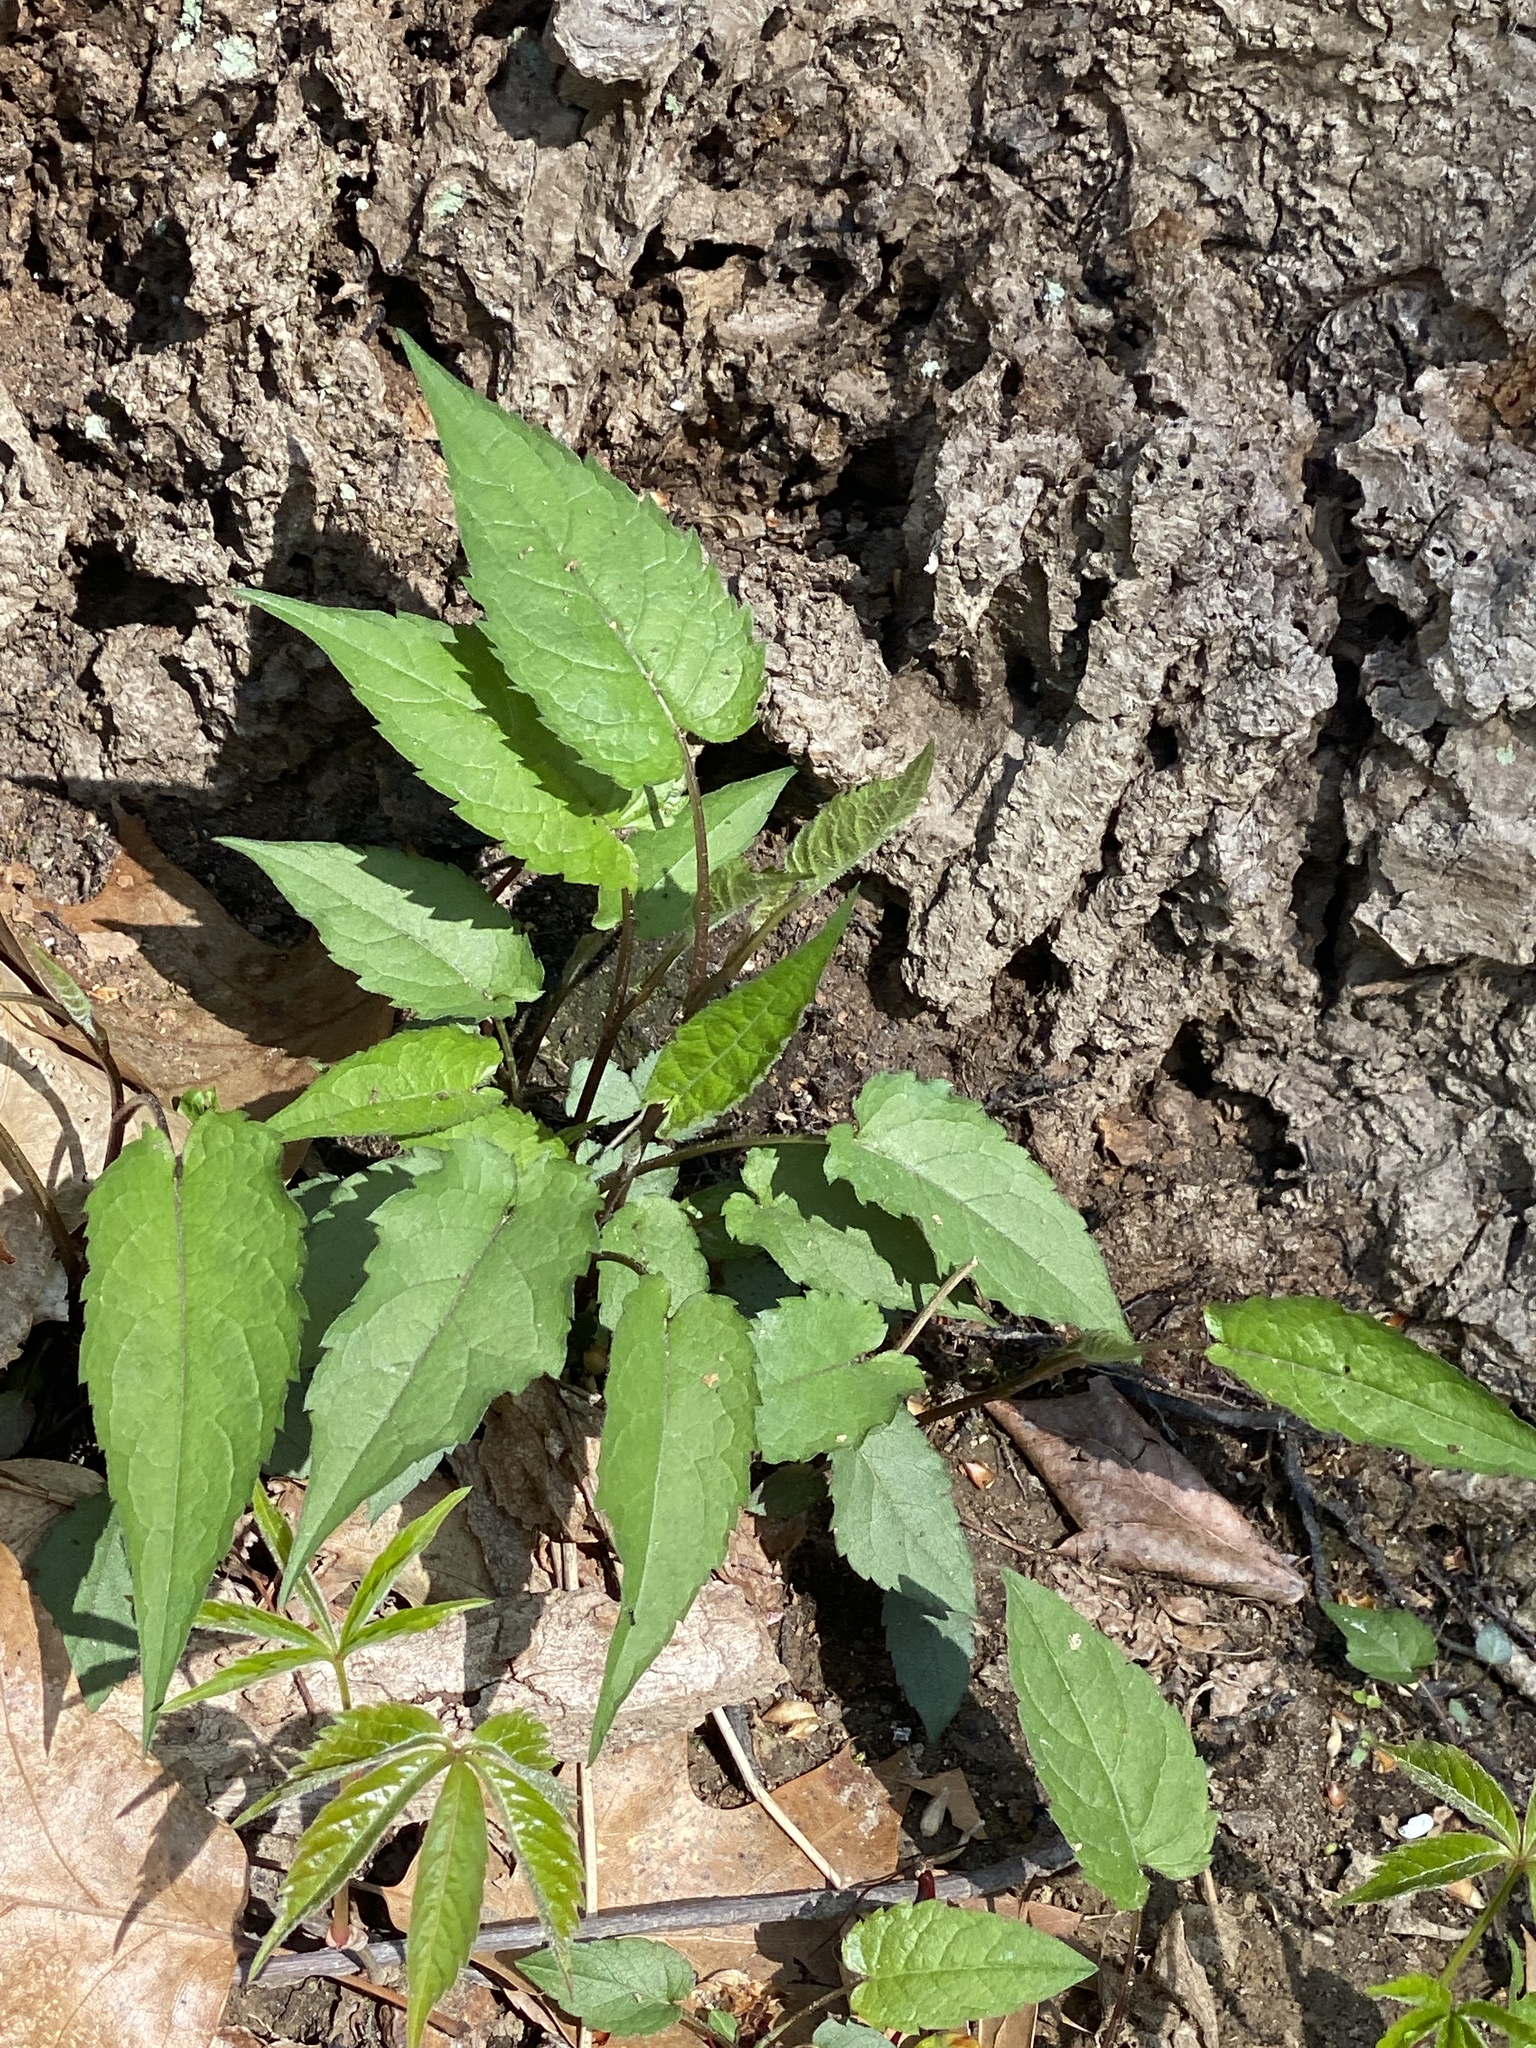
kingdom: Plantae
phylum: Tracheophyta
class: Magnoliopsida
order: Asterales
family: Asteraceae
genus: Eurybia
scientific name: Eurybia divaricata
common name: White wood aster
